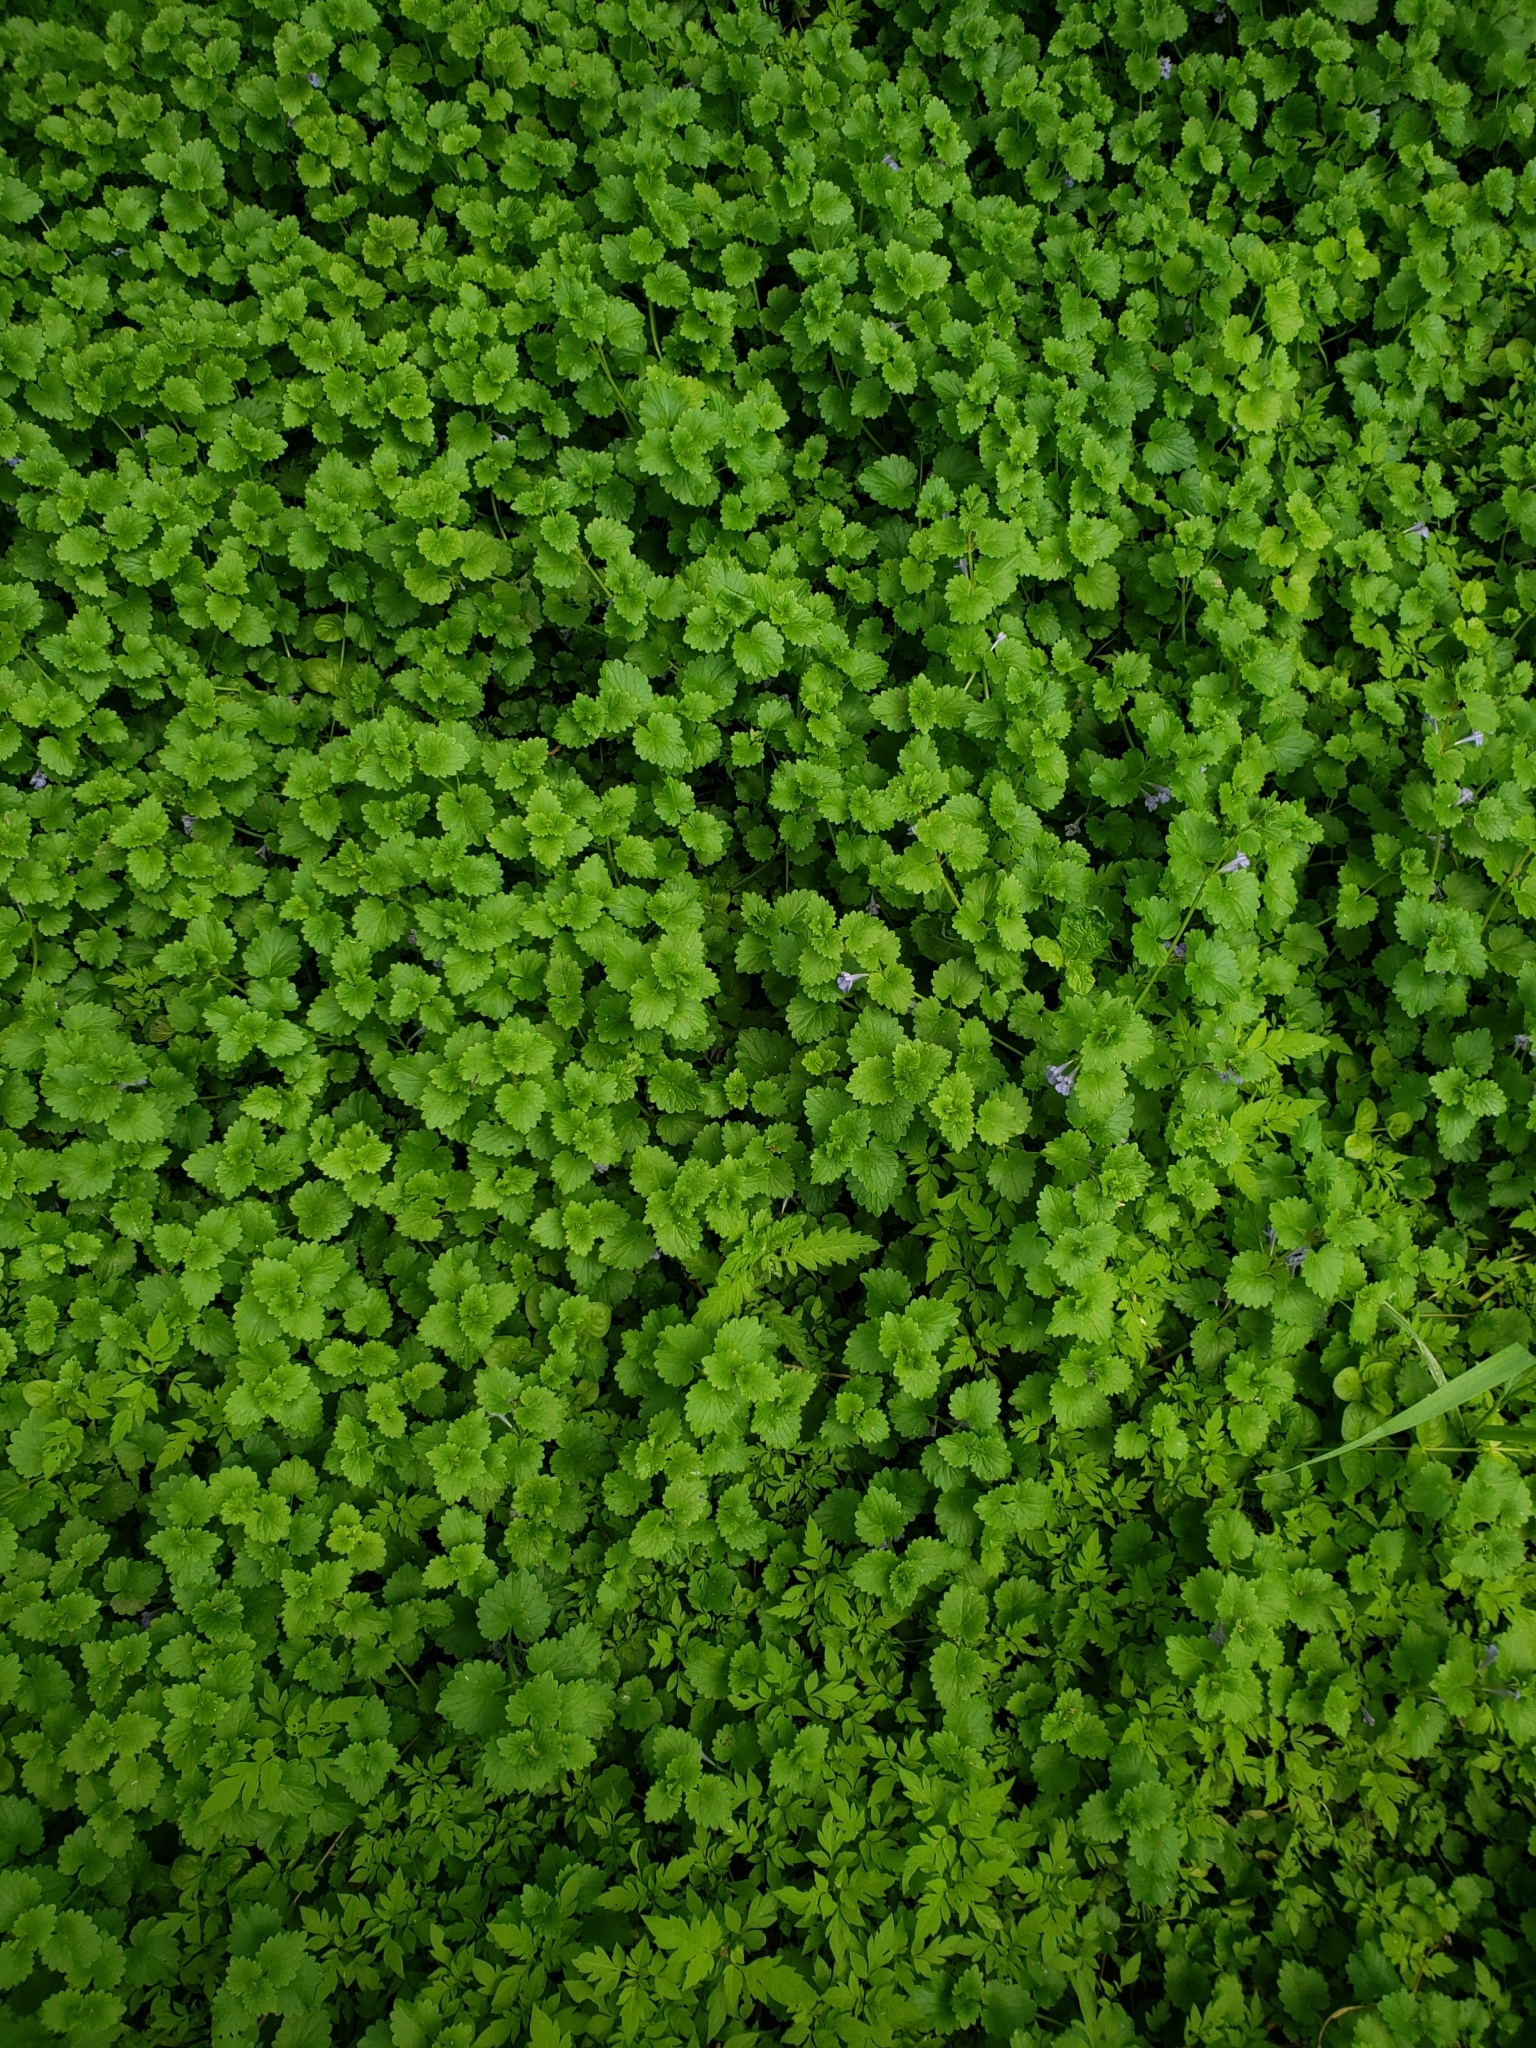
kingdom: Plantae
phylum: Tracheophyta
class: Magnoliopsida
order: Lamiales
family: Lamiaceae
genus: Glechoma
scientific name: Glechoma hederacea
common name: Ground ivy
